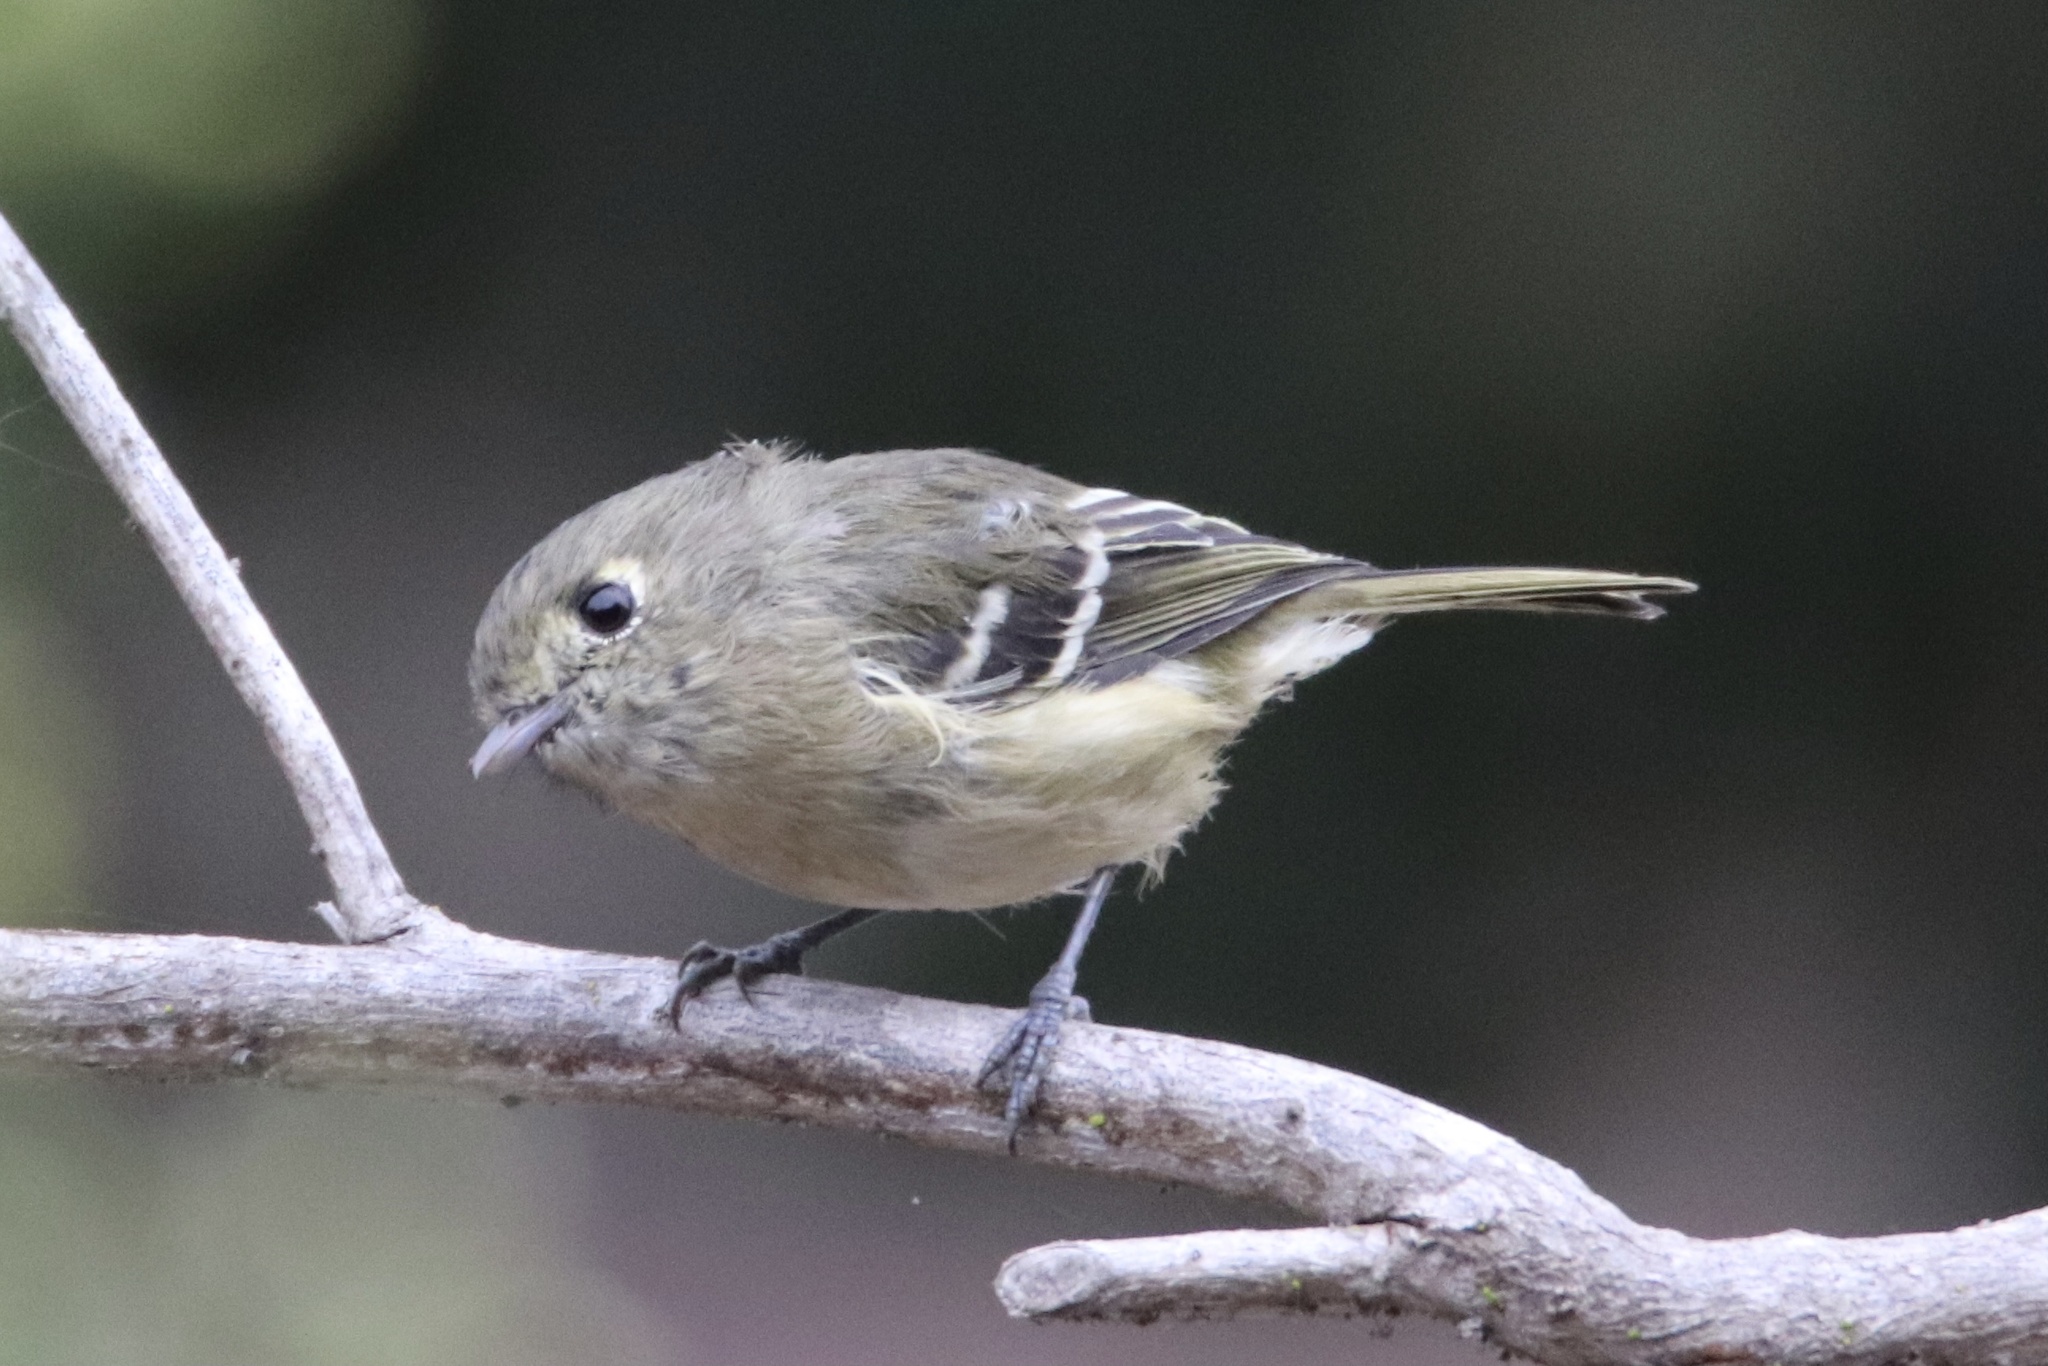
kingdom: Animalia
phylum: Chordata
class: Aves
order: Passeriformes
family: Vireonidae
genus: Vireo
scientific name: Vireo huttoni
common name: Hutton's vireo
